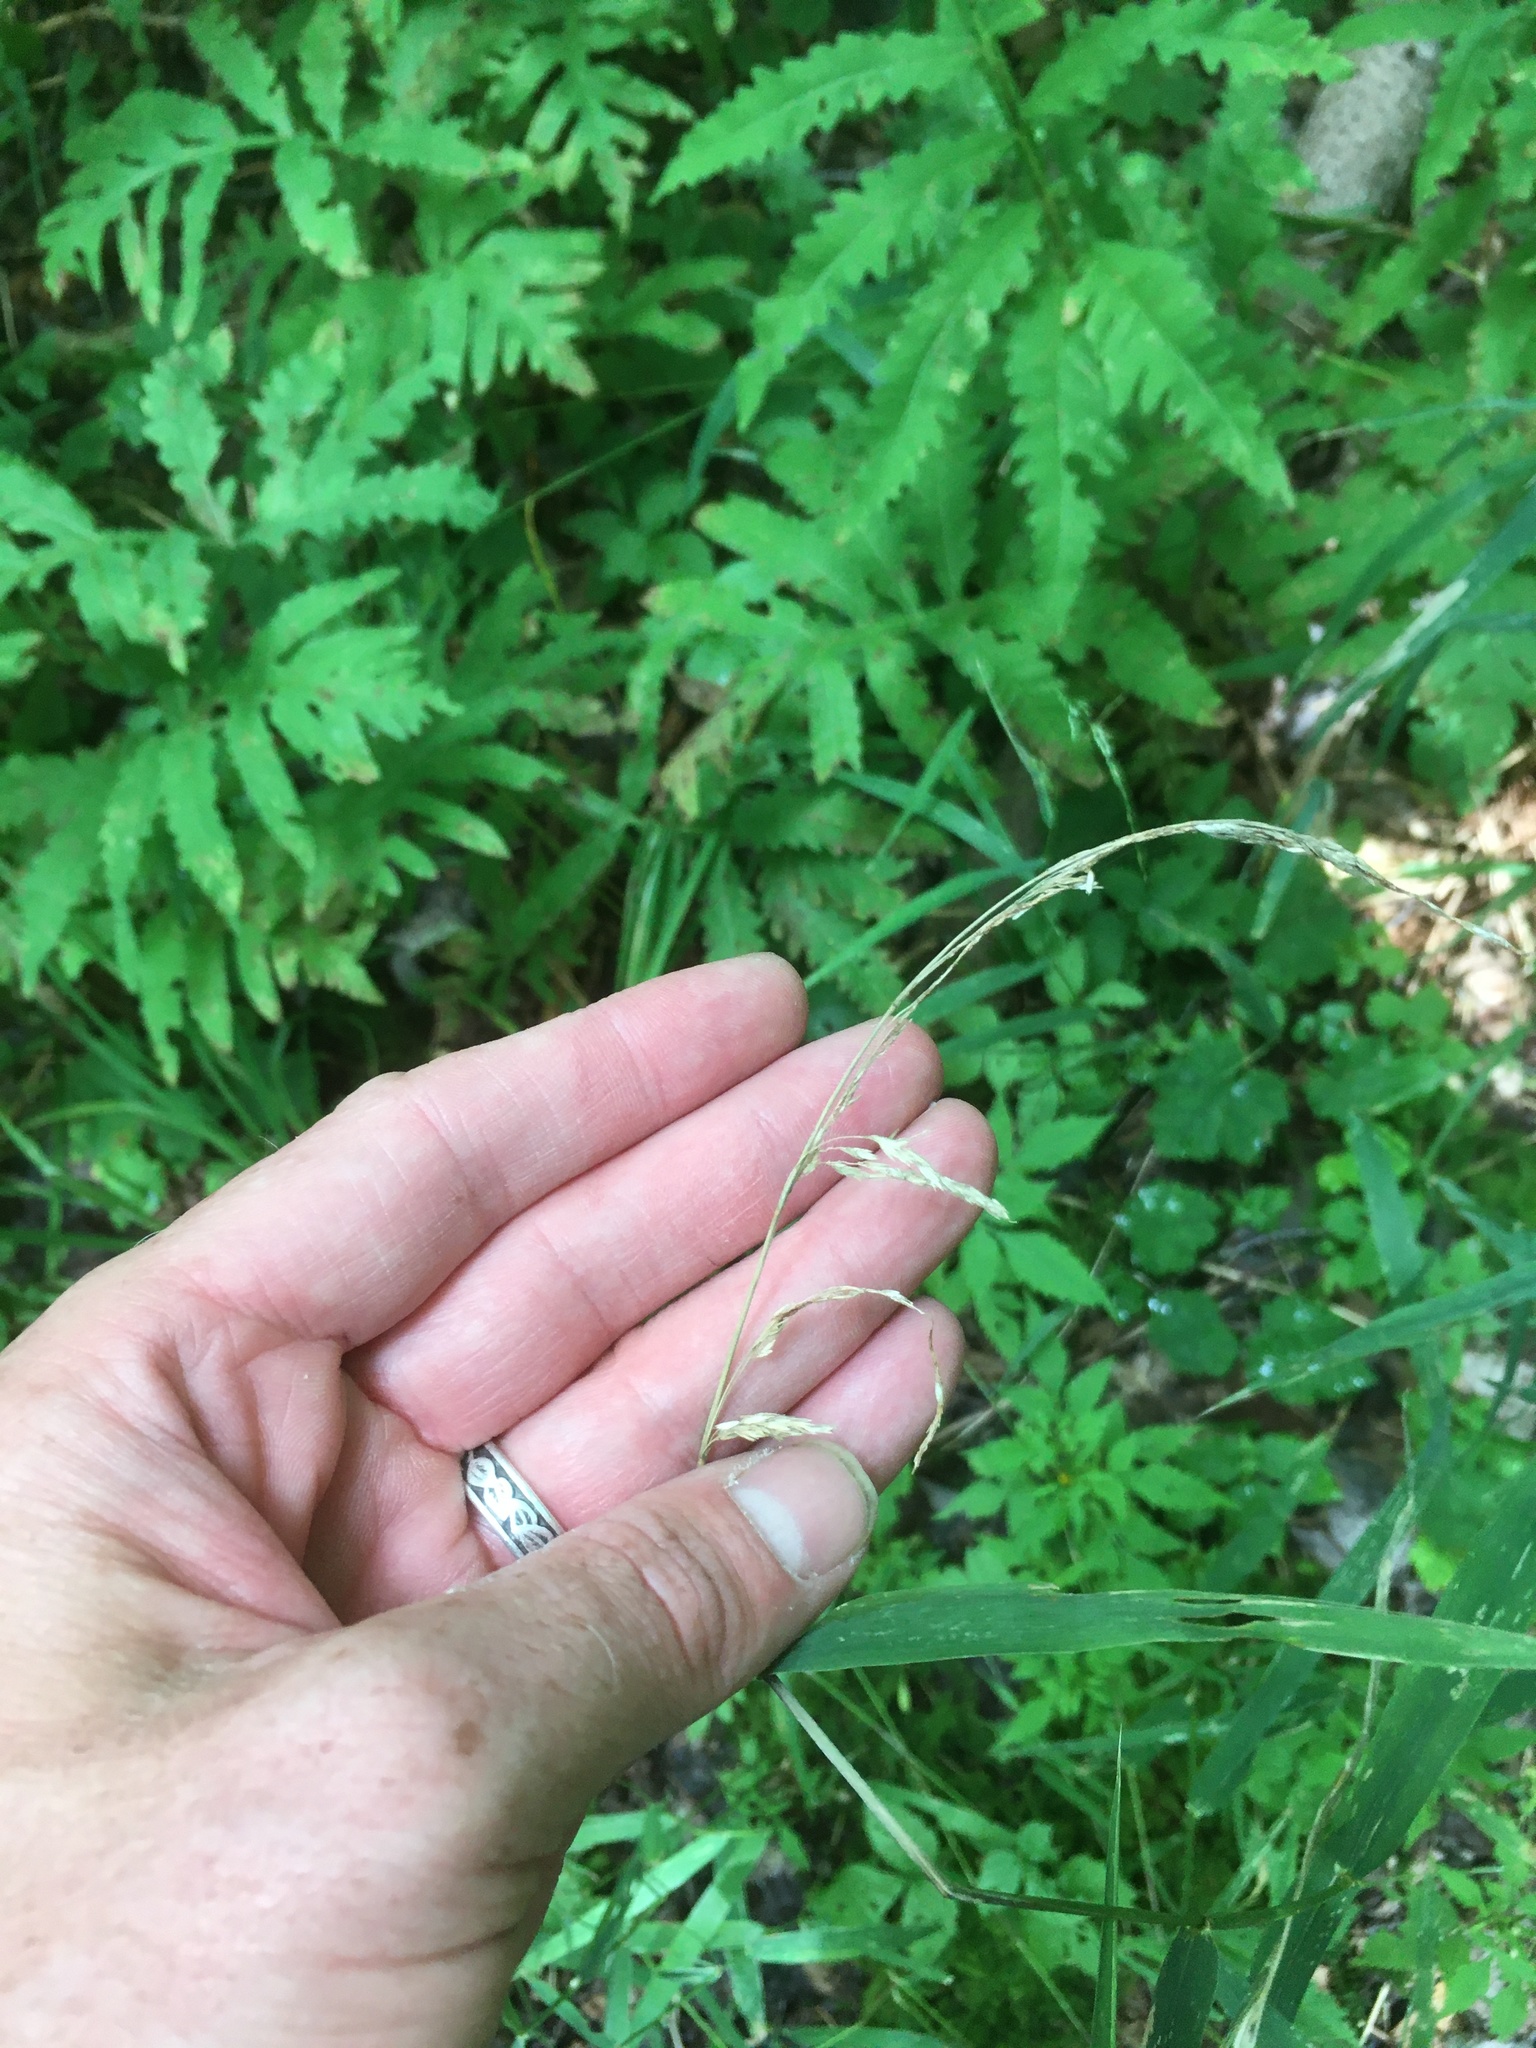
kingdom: Plantae
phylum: Tracheophyta
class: Liliopsida
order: Poales
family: Poaceae
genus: Cinna
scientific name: Cinna latifolia
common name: Drooping woodreed
